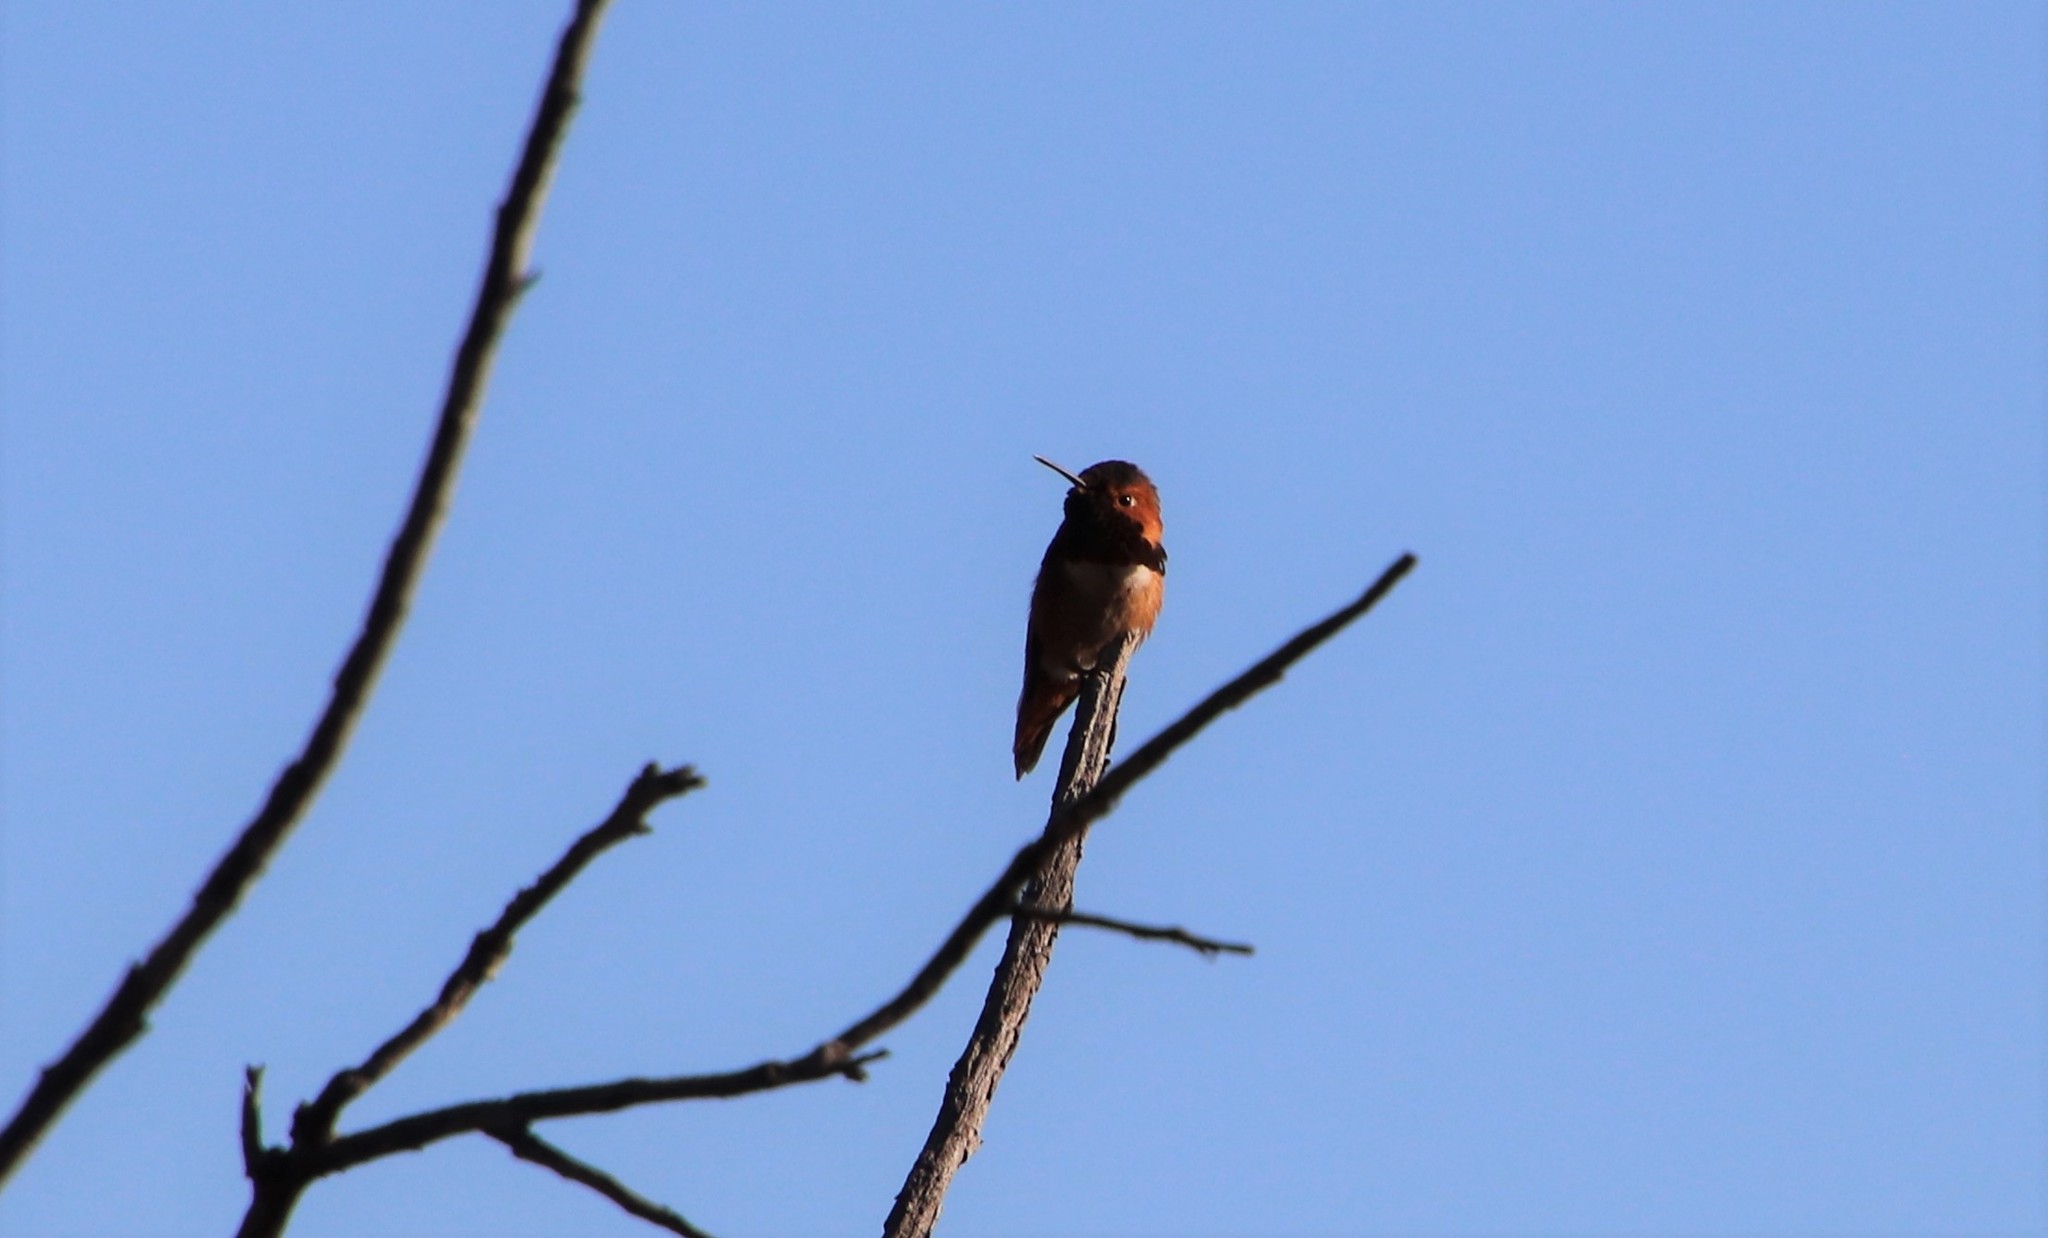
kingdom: Animalia
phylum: Chordata
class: Aves
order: Apodiformes
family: Trochilidae
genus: Selasphorus
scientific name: Selasphorus sasin
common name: Allen's hummingbird
